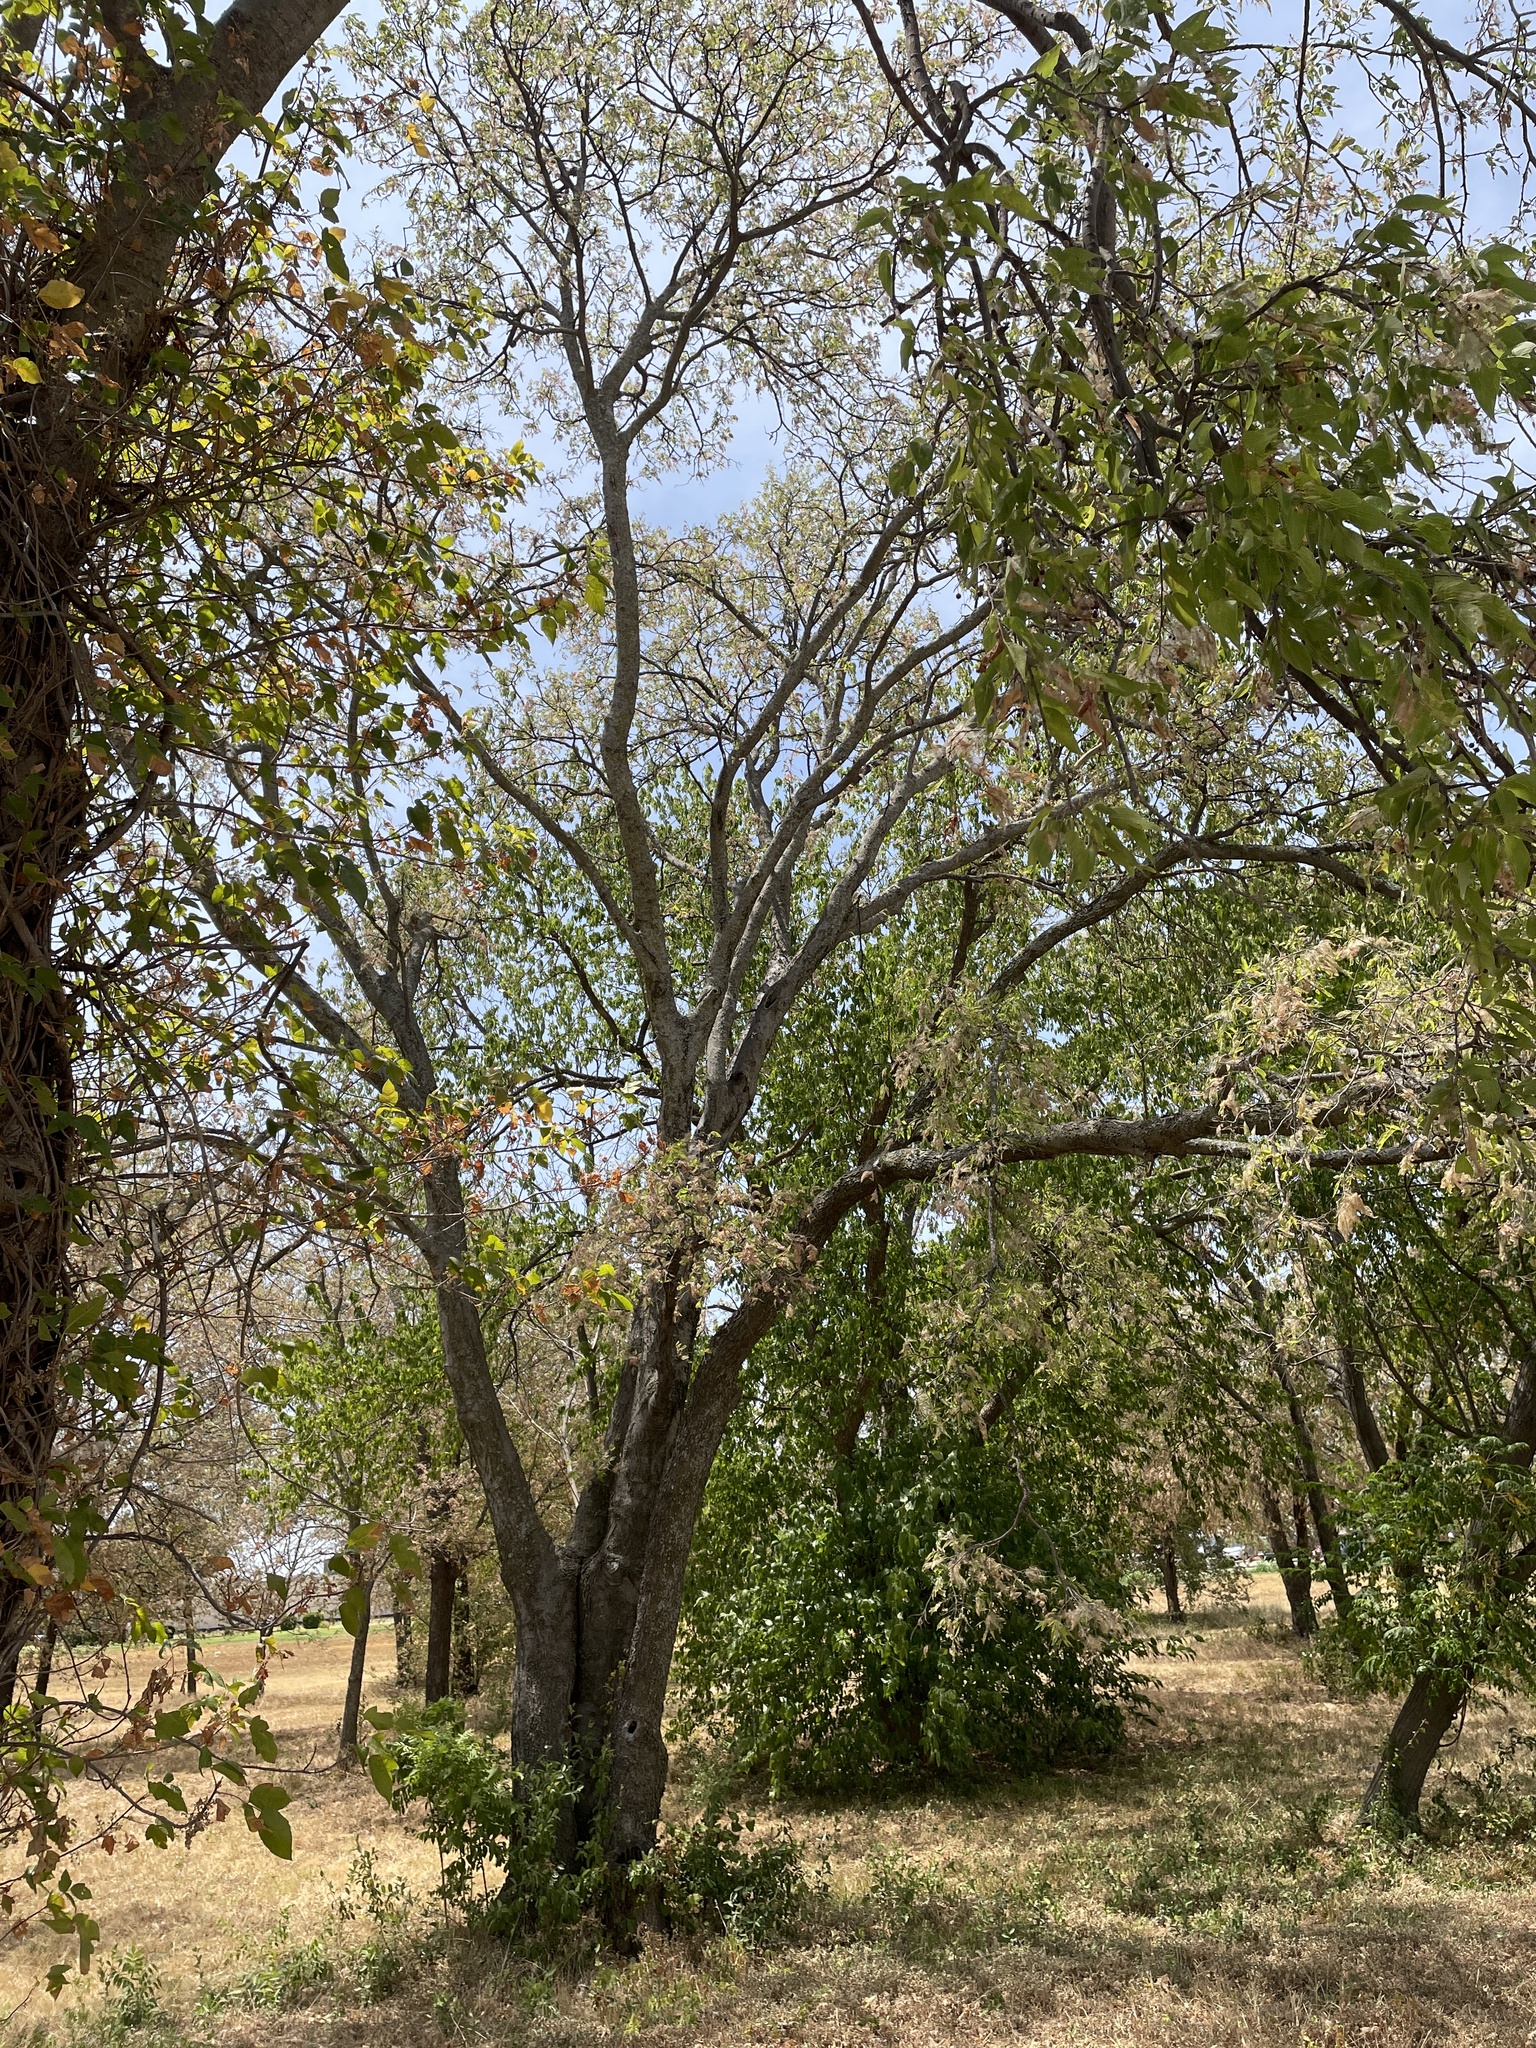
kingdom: Plantae
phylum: Tracheophyta
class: Magnoliopsida
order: Rosales
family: Cannabaceae
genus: Celtis
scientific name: Celtis laevigata
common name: Sugarberry
